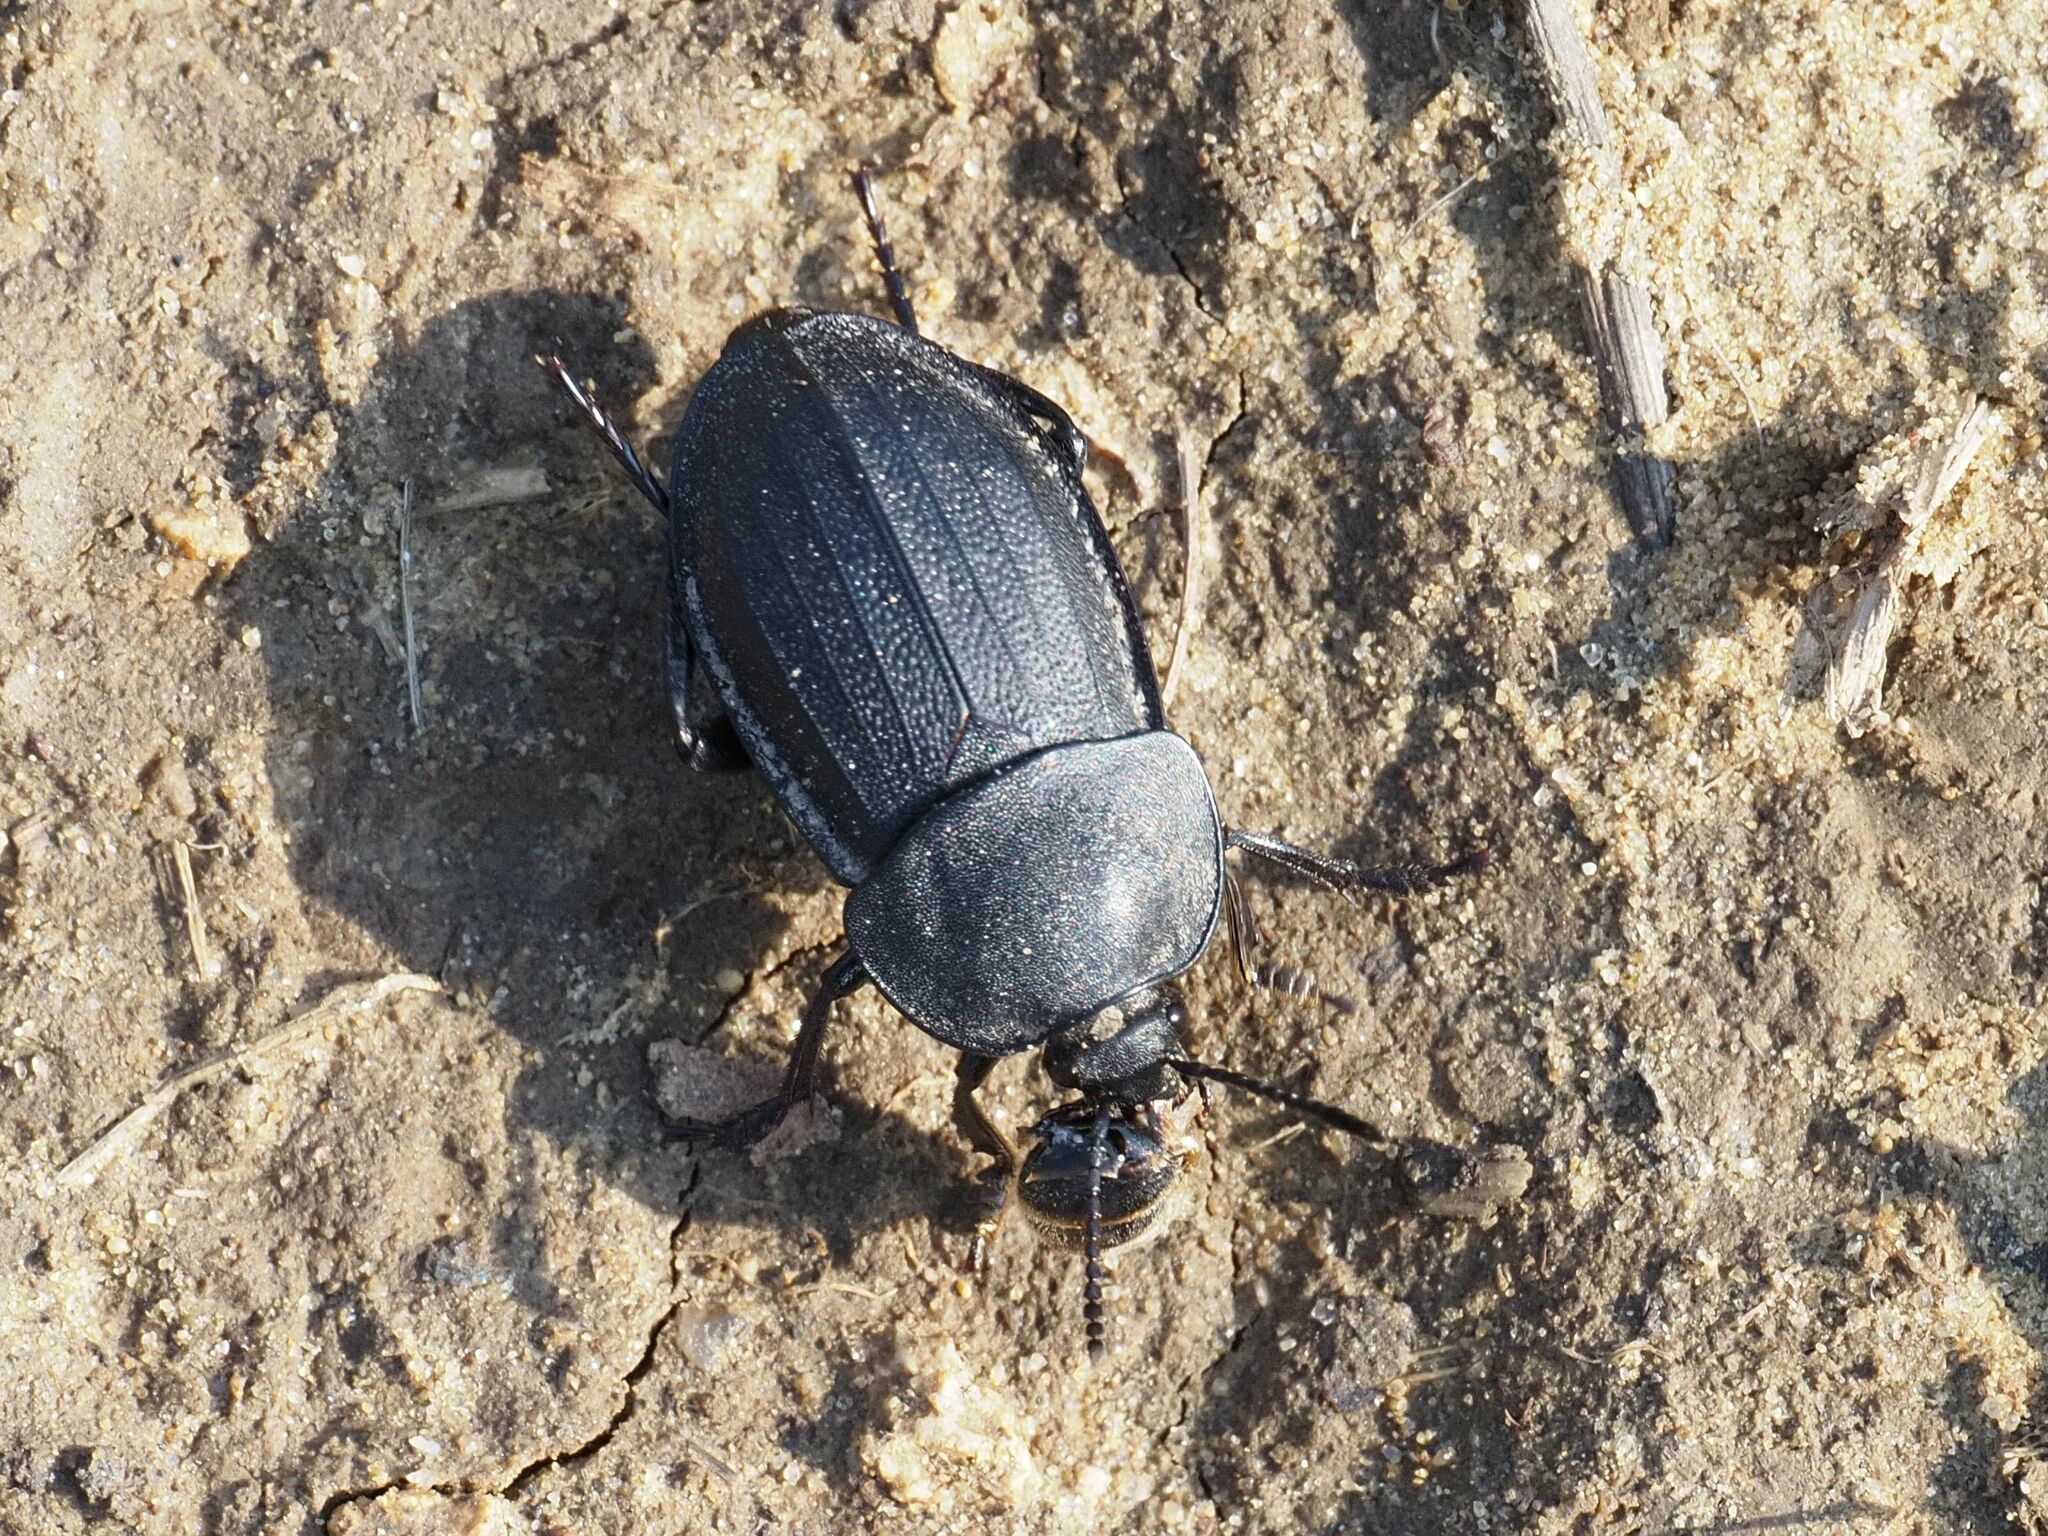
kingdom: Animalia
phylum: Arthropoda
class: Insecta
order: Coleoptera
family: Staphylinidae
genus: Silpha
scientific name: Silpha obscura
